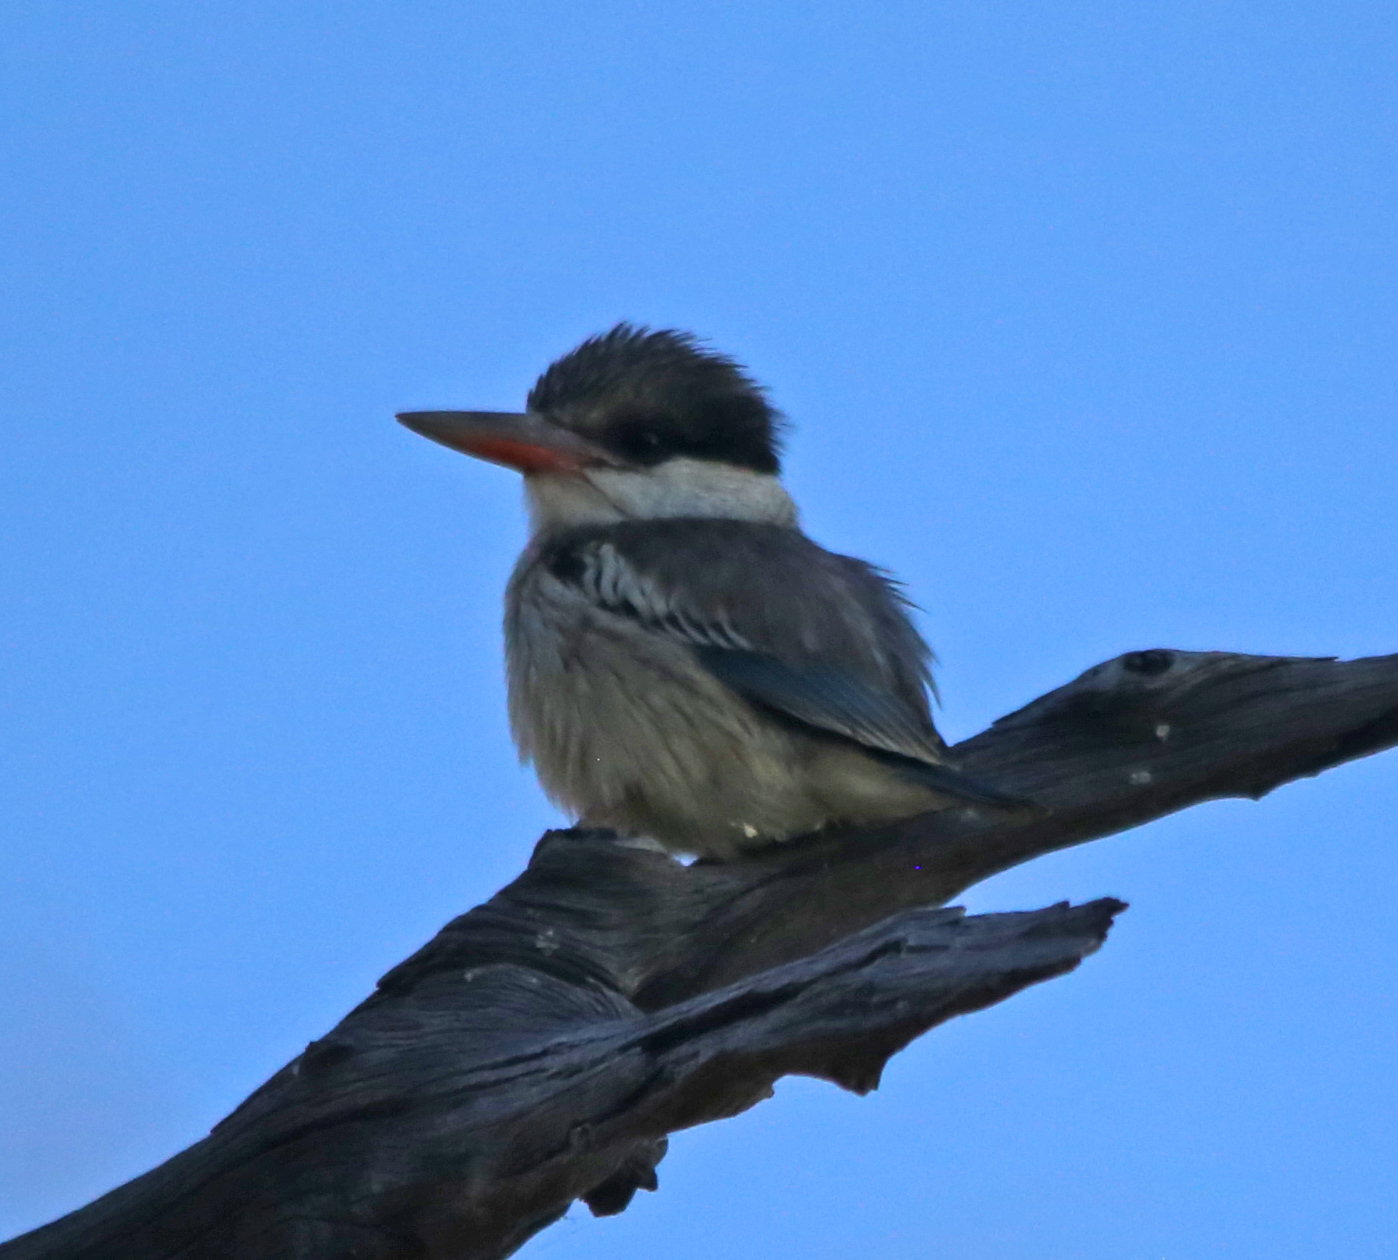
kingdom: Animalia
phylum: Chordata
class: Aves
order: Coraciiformes
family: Alcedinidae
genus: Halcyon
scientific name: Halcyon chelicuti
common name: Striped kingfisher
